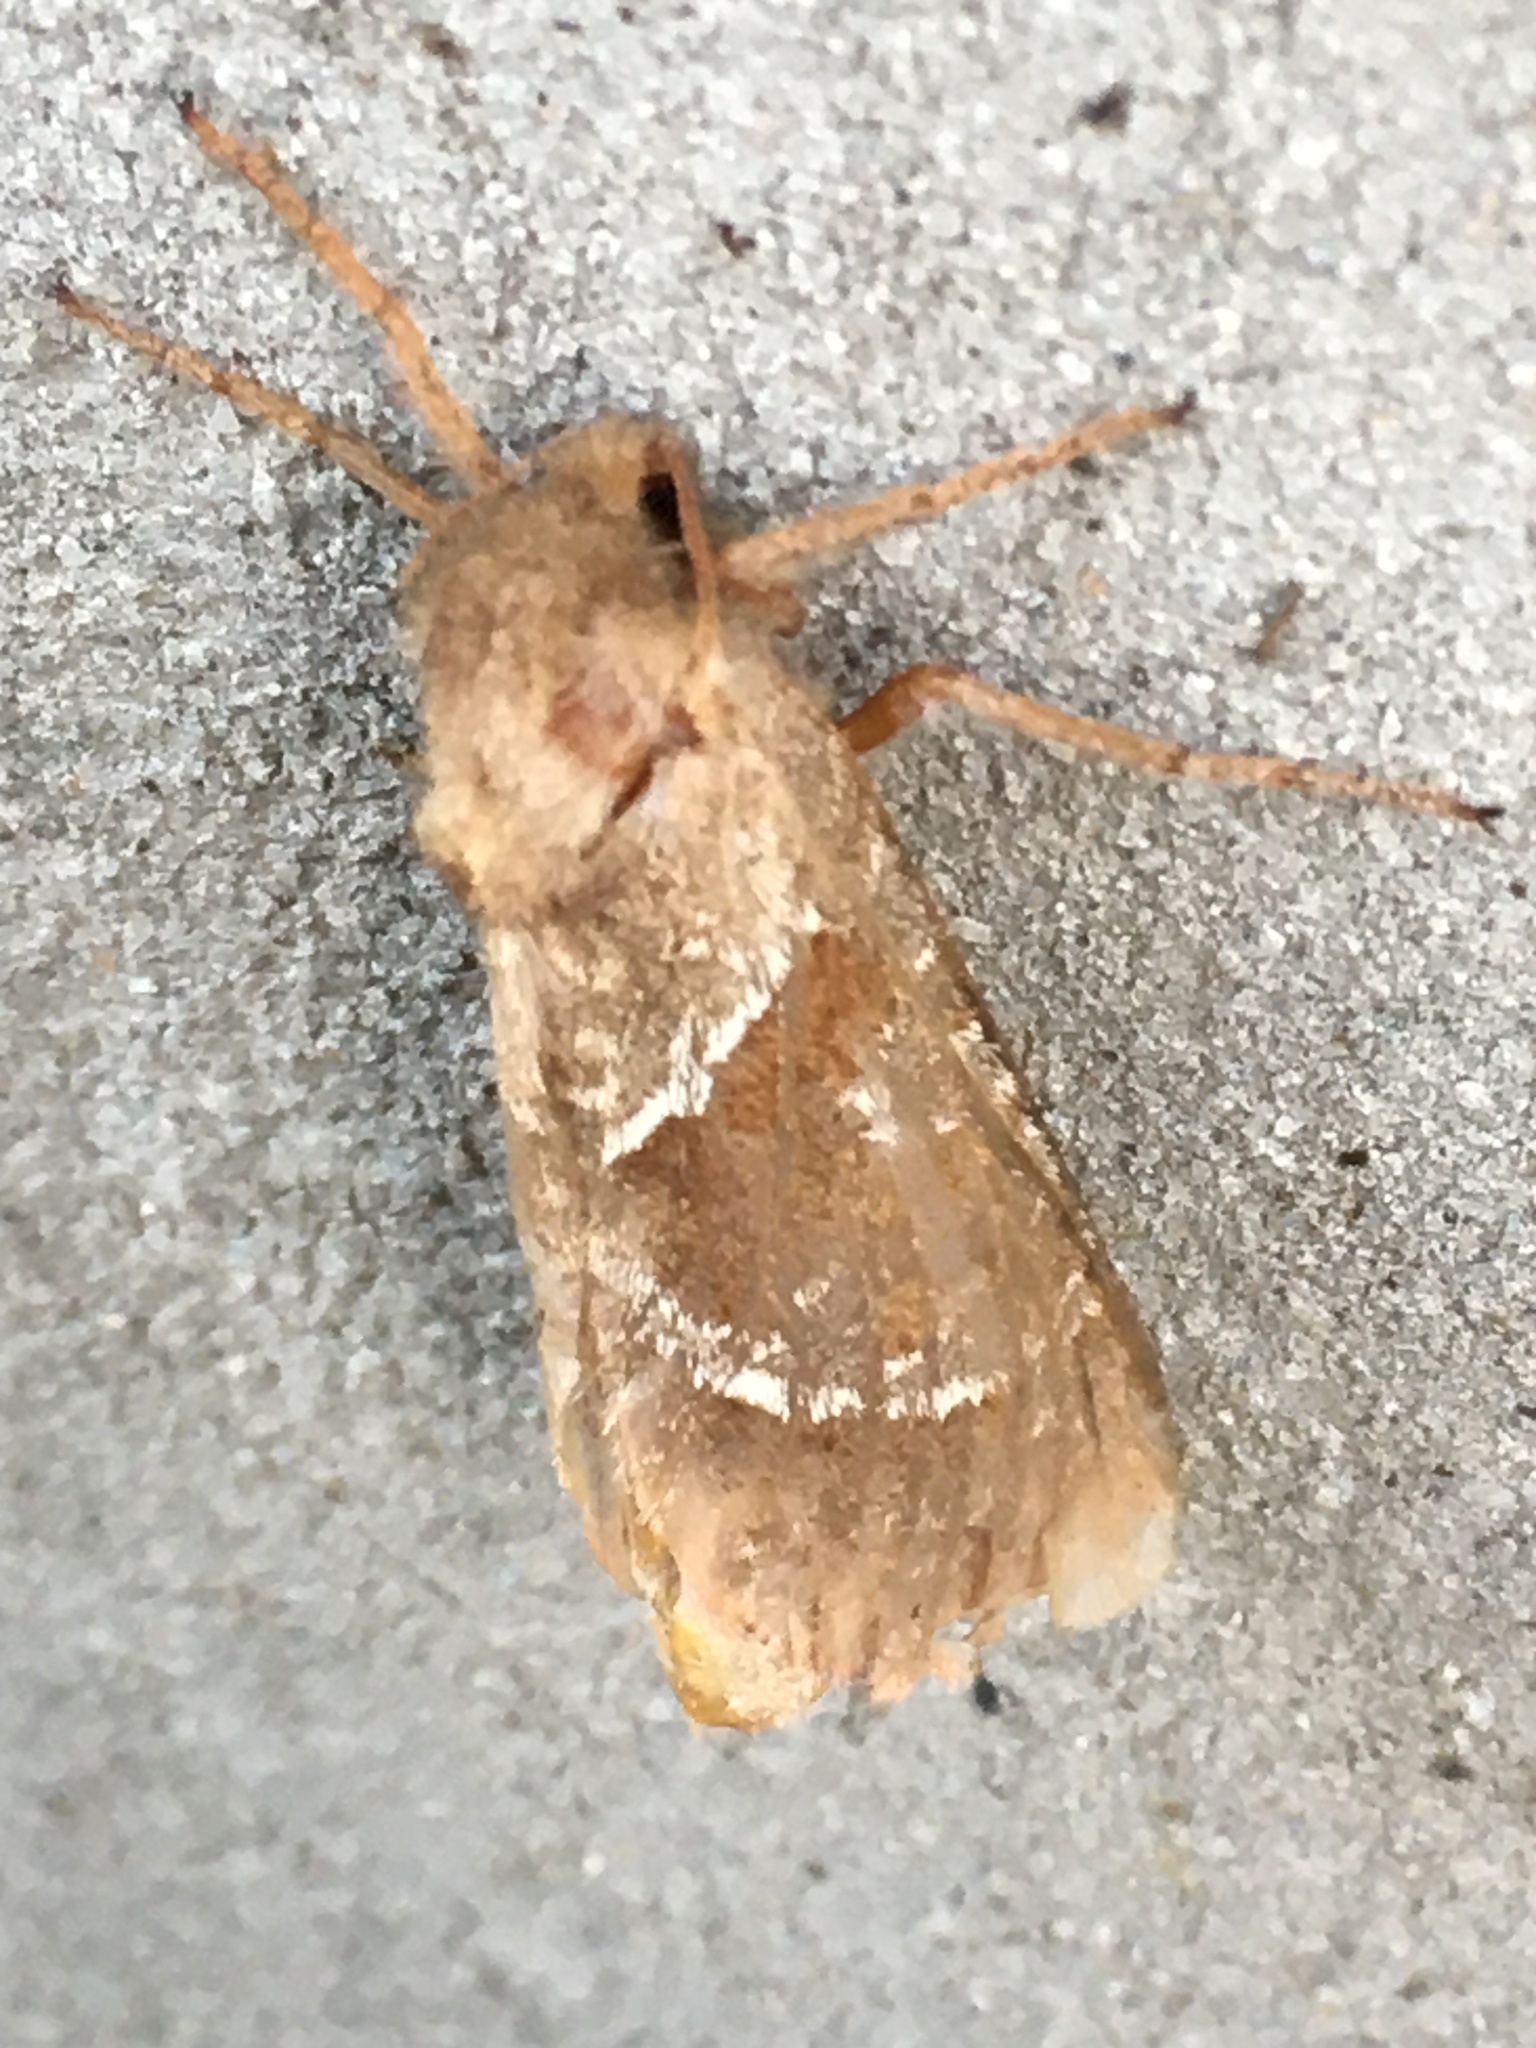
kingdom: Animalia
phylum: Arthropoda
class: Insecta
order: Lepidoptera
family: Hepialidae
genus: Triodia
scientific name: Triodia sylvina
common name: Orange swift
